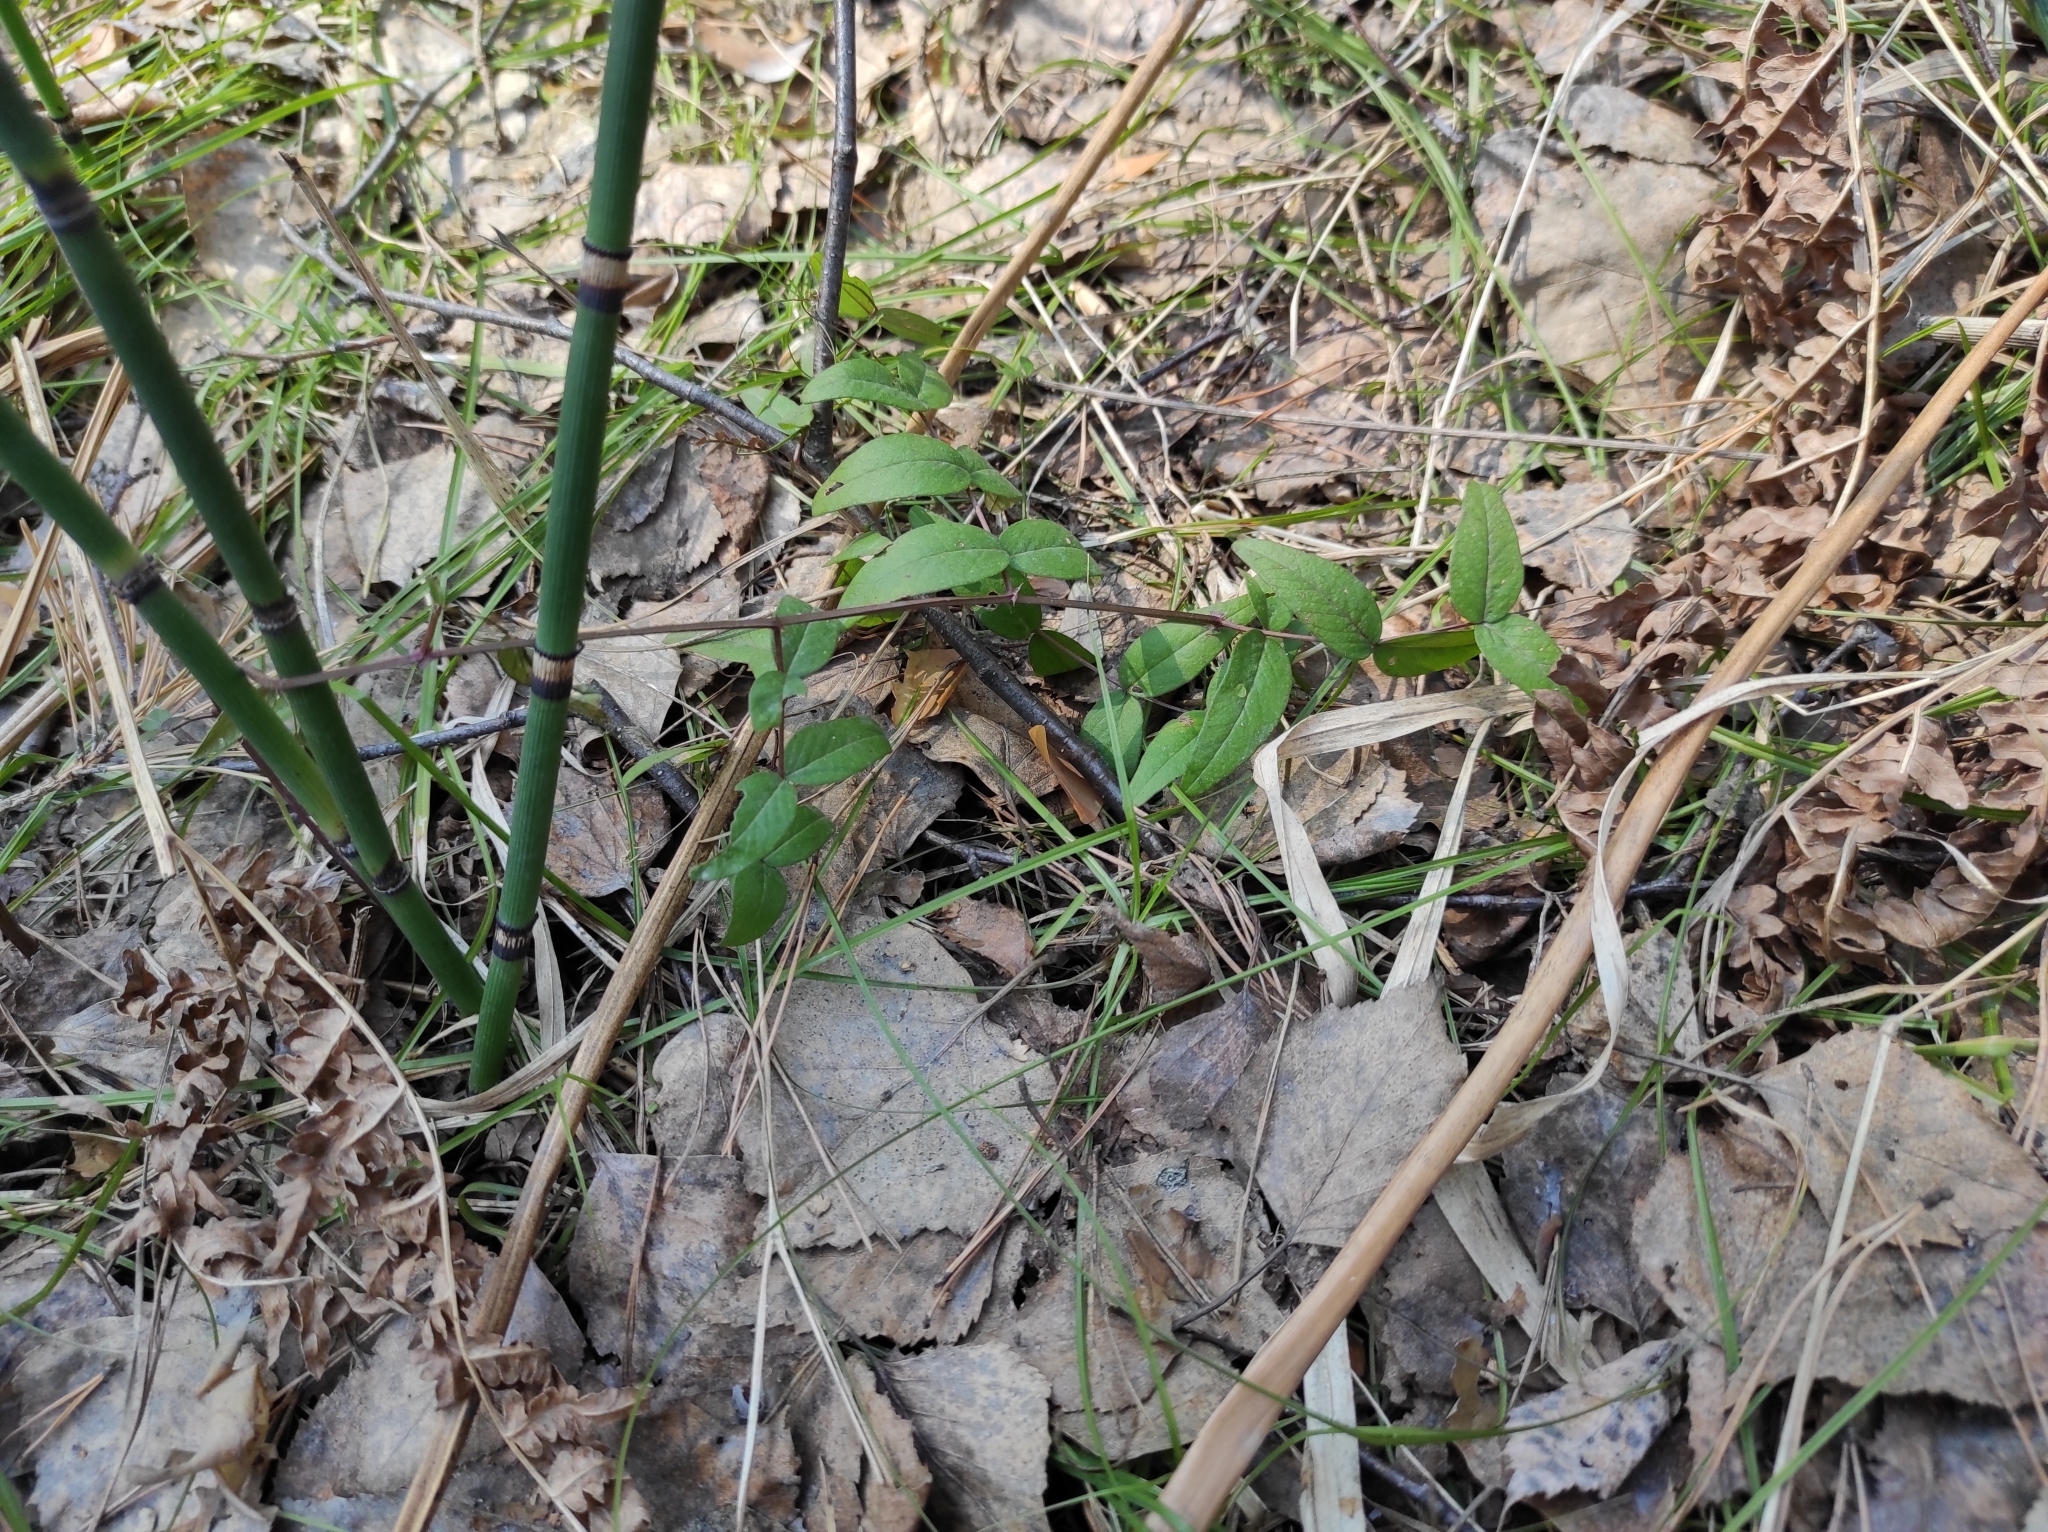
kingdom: Plantae
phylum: Tracheophyta
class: Magnoliopsida
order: Fabales
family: Fabaceae
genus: Vicia
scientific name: Vicia sepium
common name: Bush vetch
